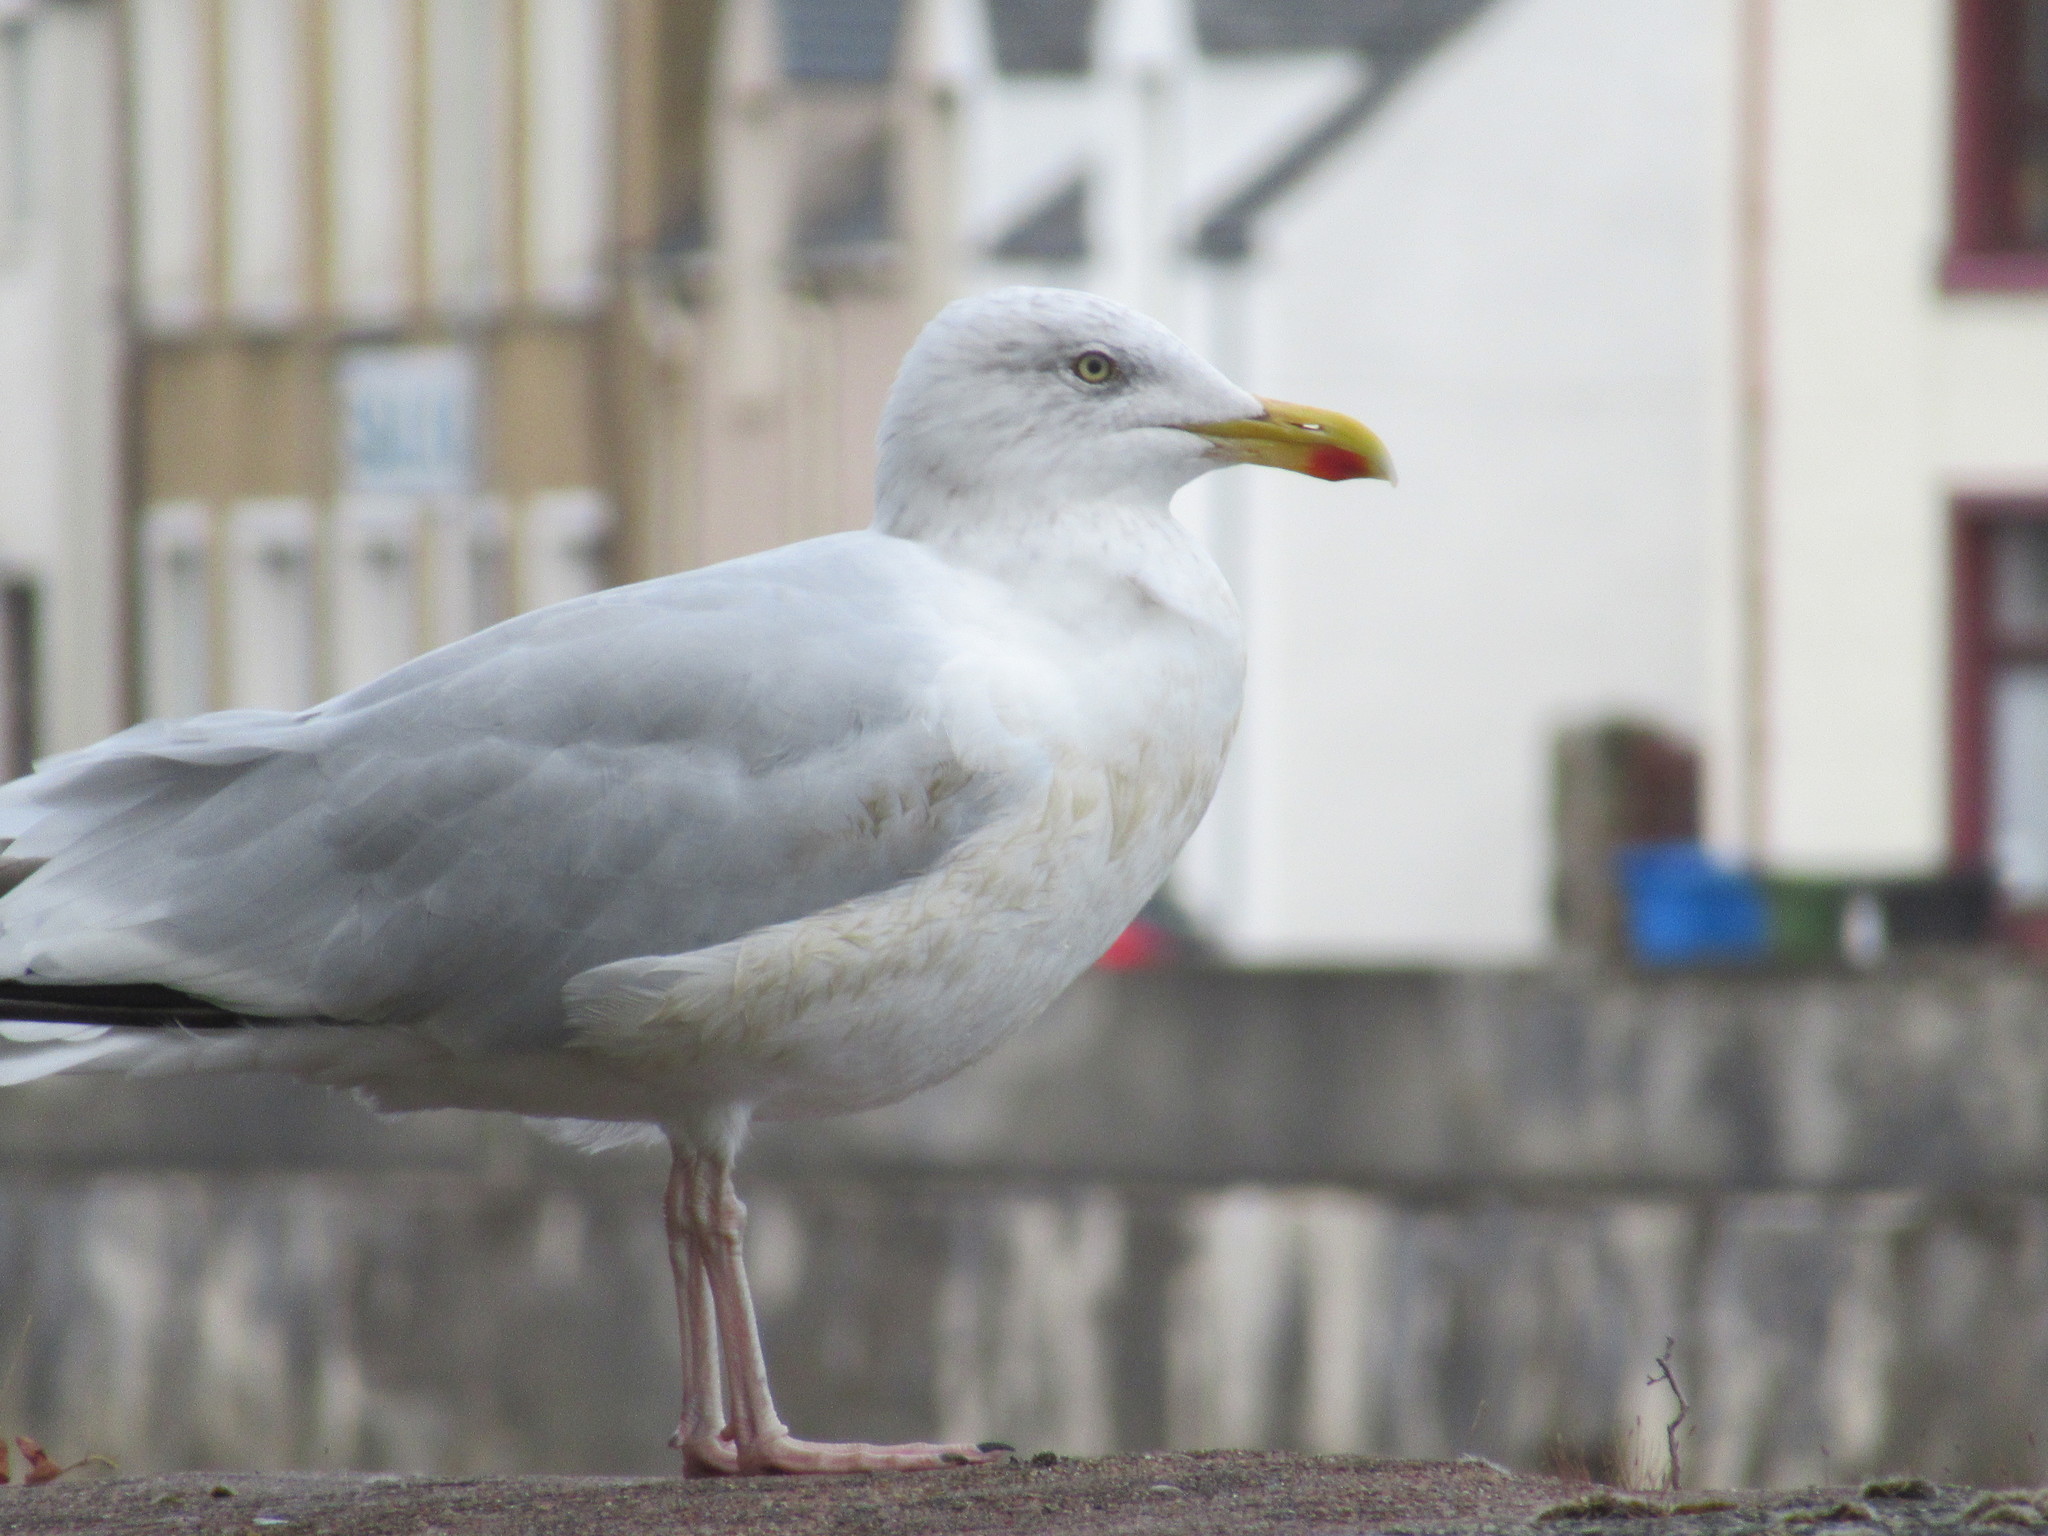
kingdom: Animalia
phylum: Chordata
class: Aves
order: Charadriiformes
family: Laridae
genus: Larus
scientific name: Larus argentatus
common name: Herring gull
